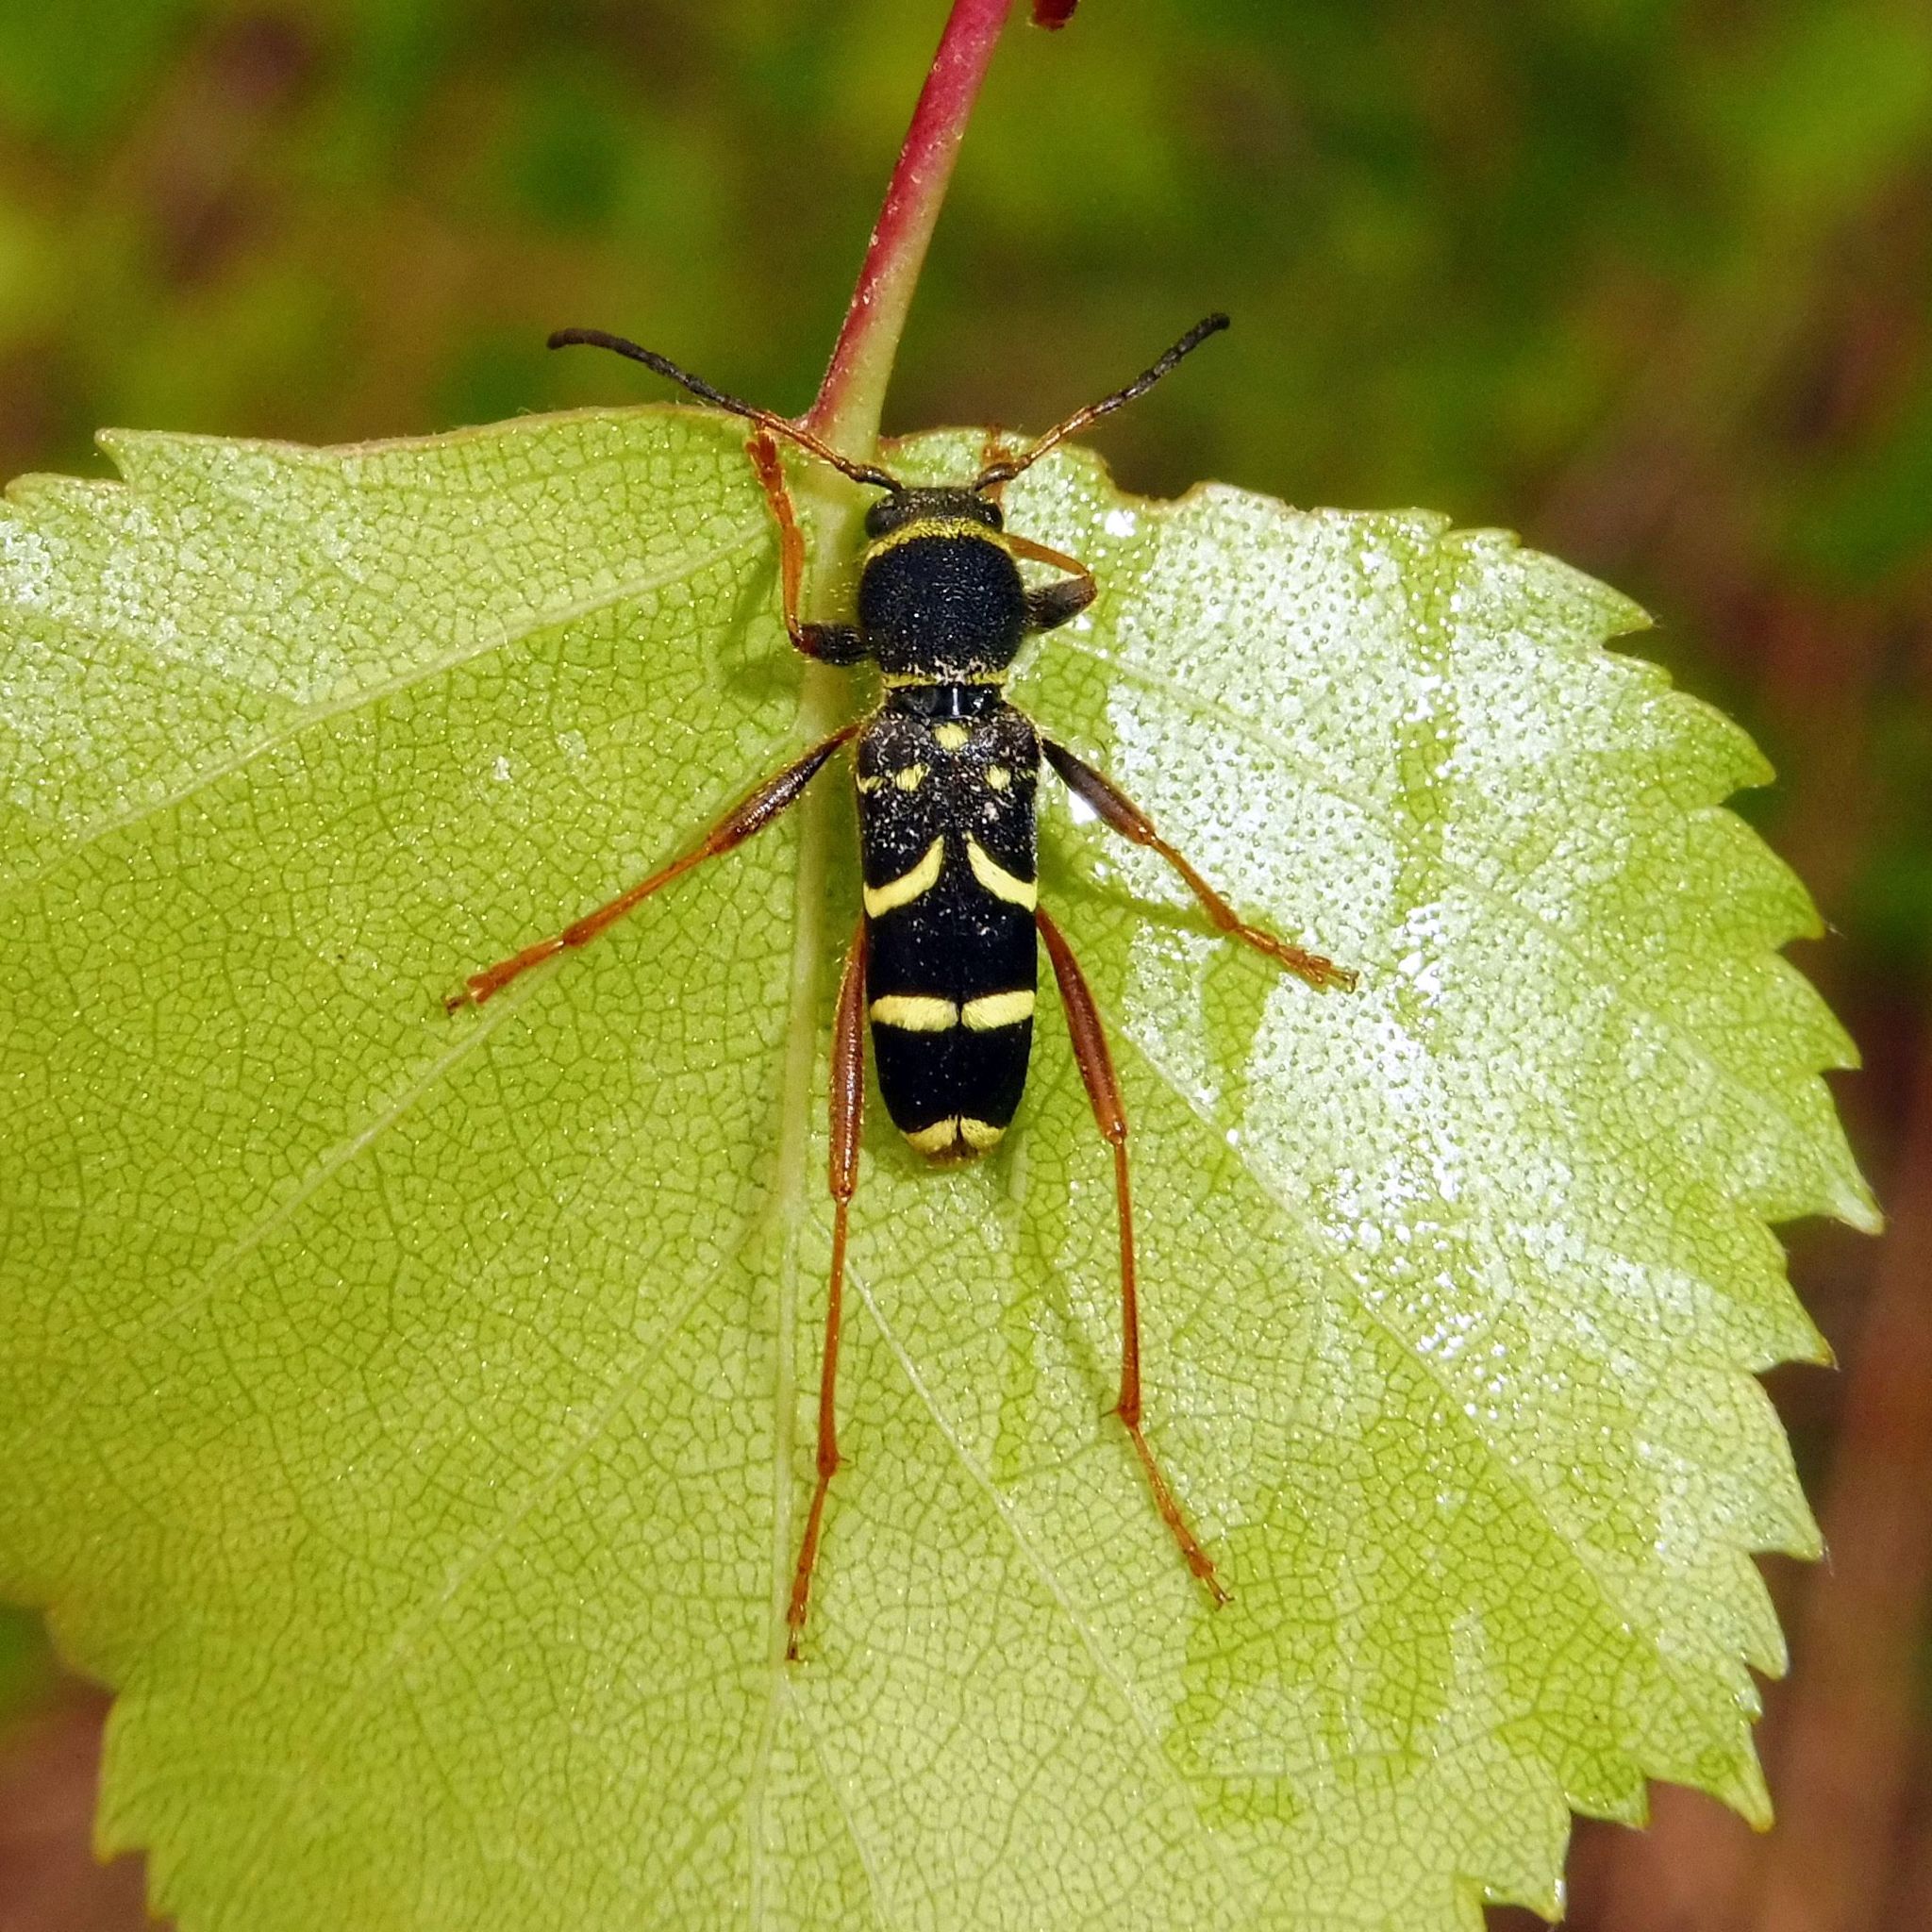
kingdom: Animalia
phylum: Arthropoda
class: Insecta
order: Coleoptera
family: Cerambycidae
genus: Clytus
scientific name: Clytus arietis
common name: Wasp beetle
